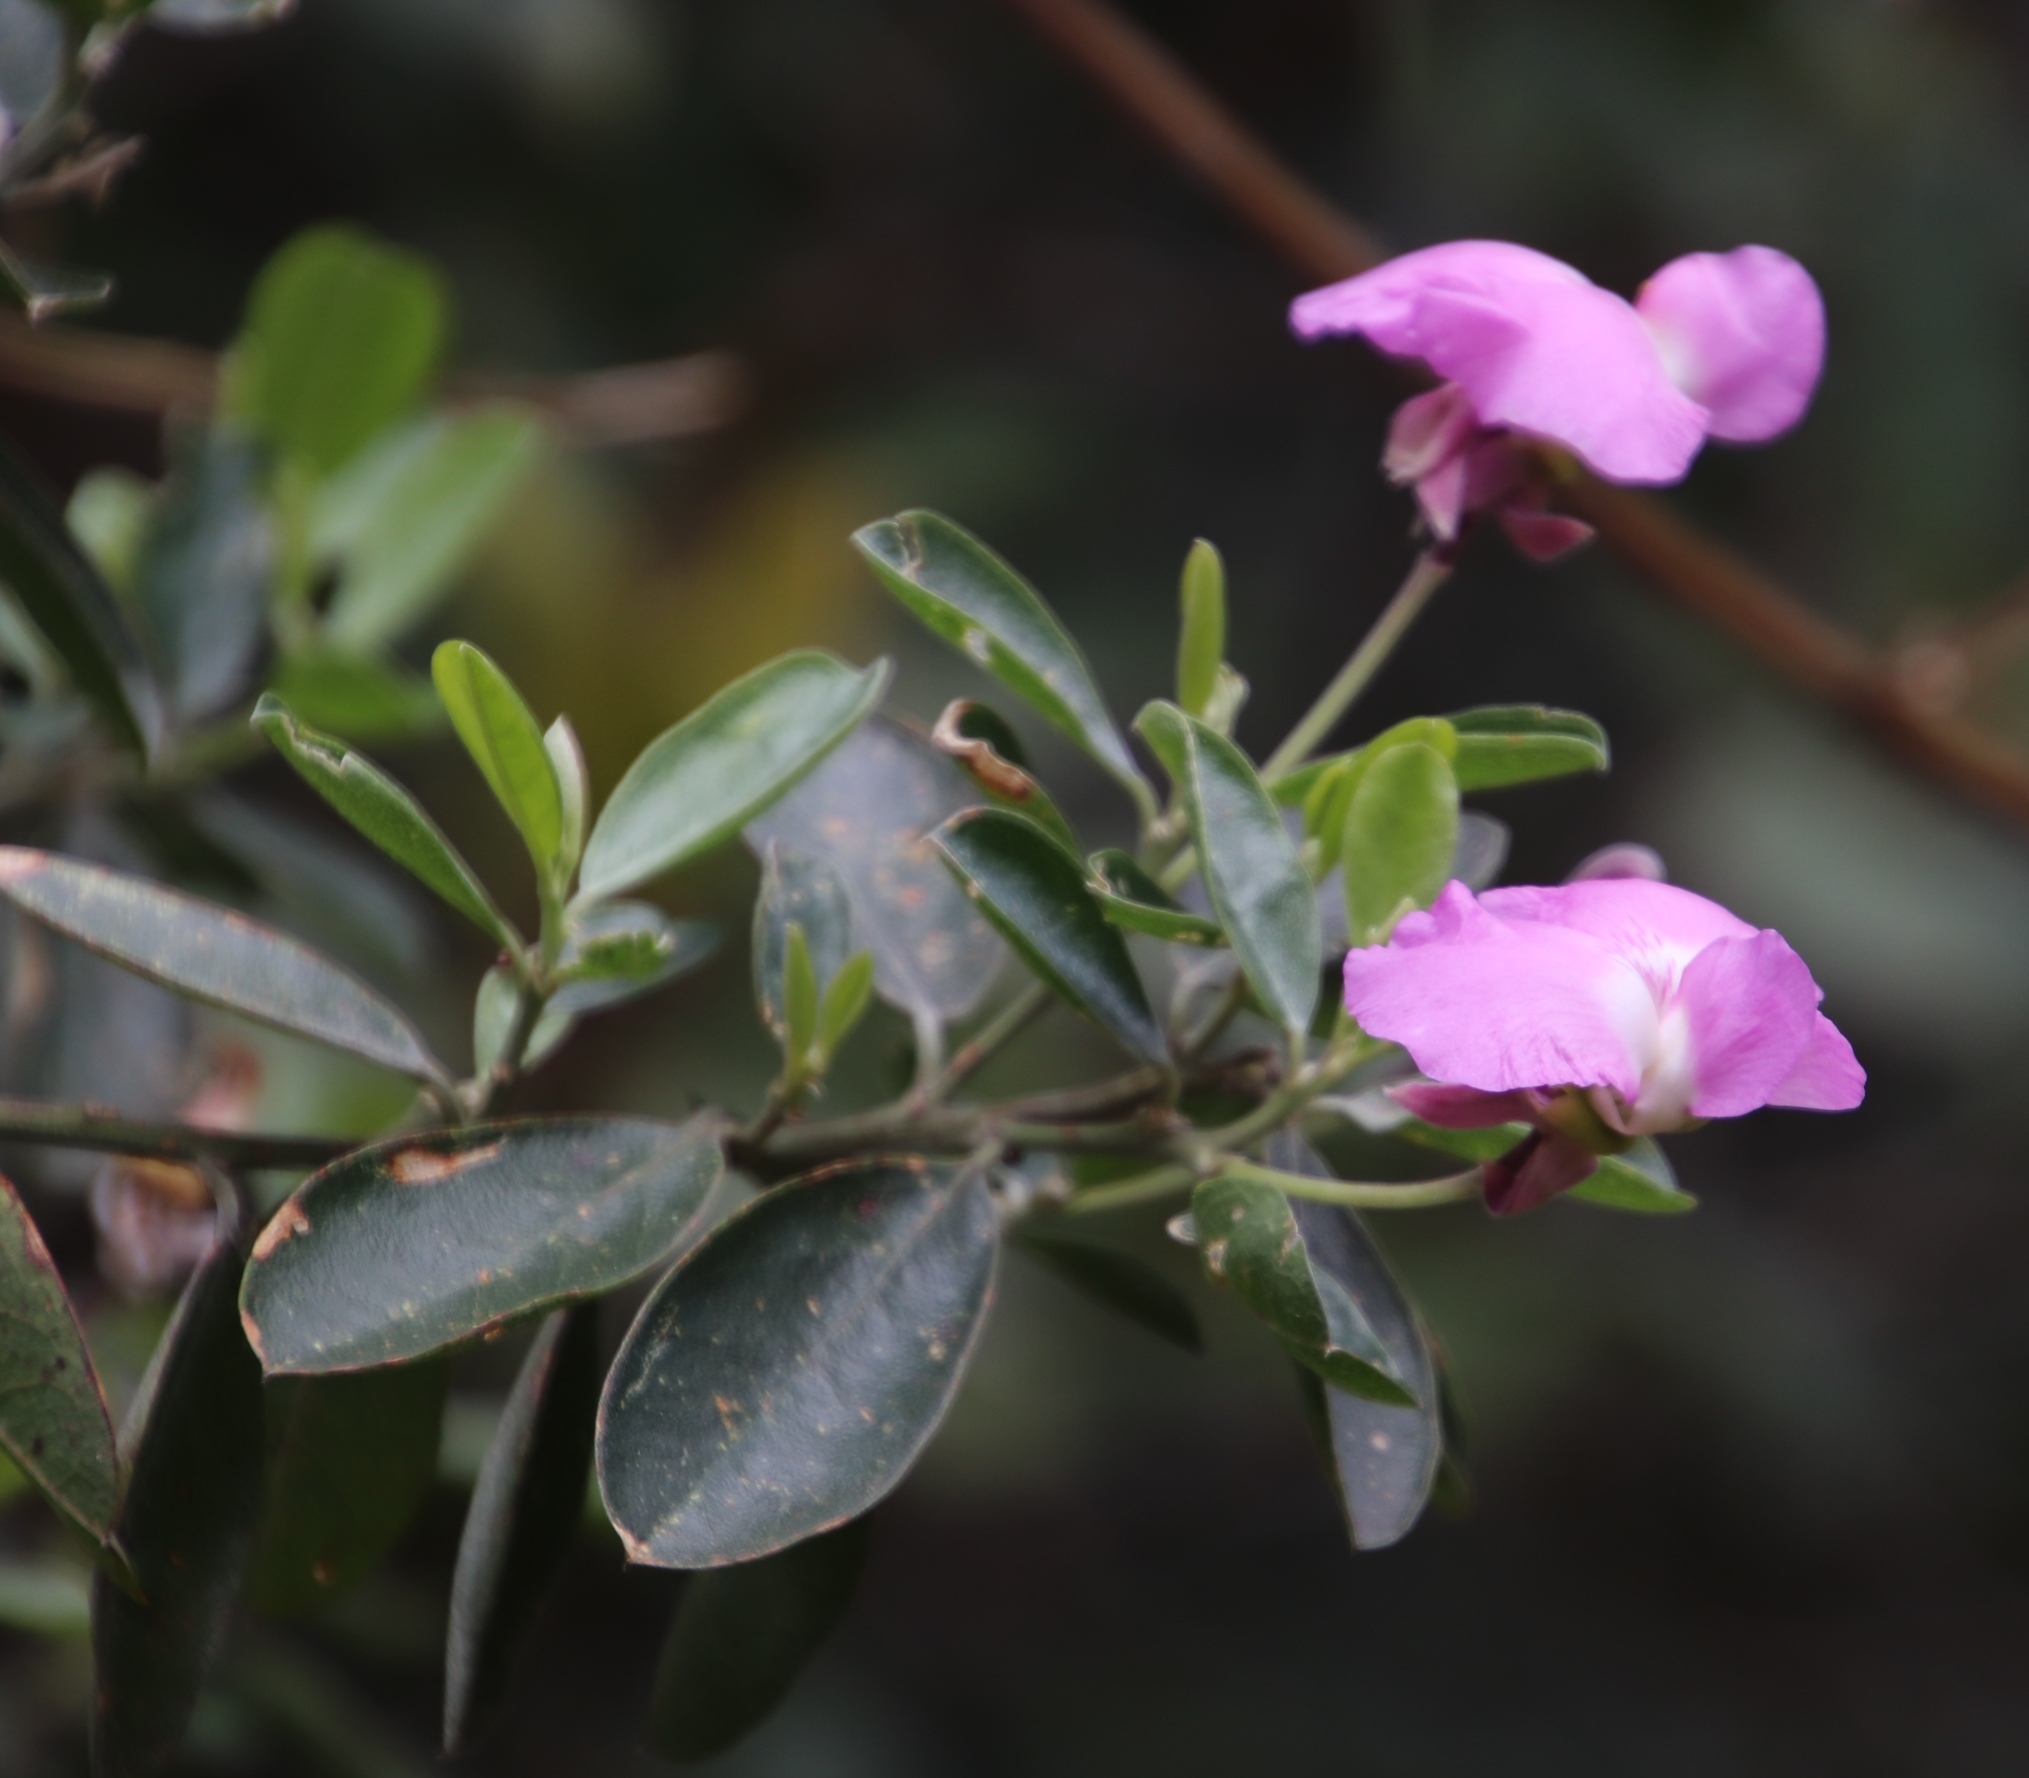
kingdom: Plantae
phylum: Tracheophyta
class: Magnoliopsida
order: Fabales
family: Fabaceae
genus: Podalyria
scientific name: Podalyria calyptrata
